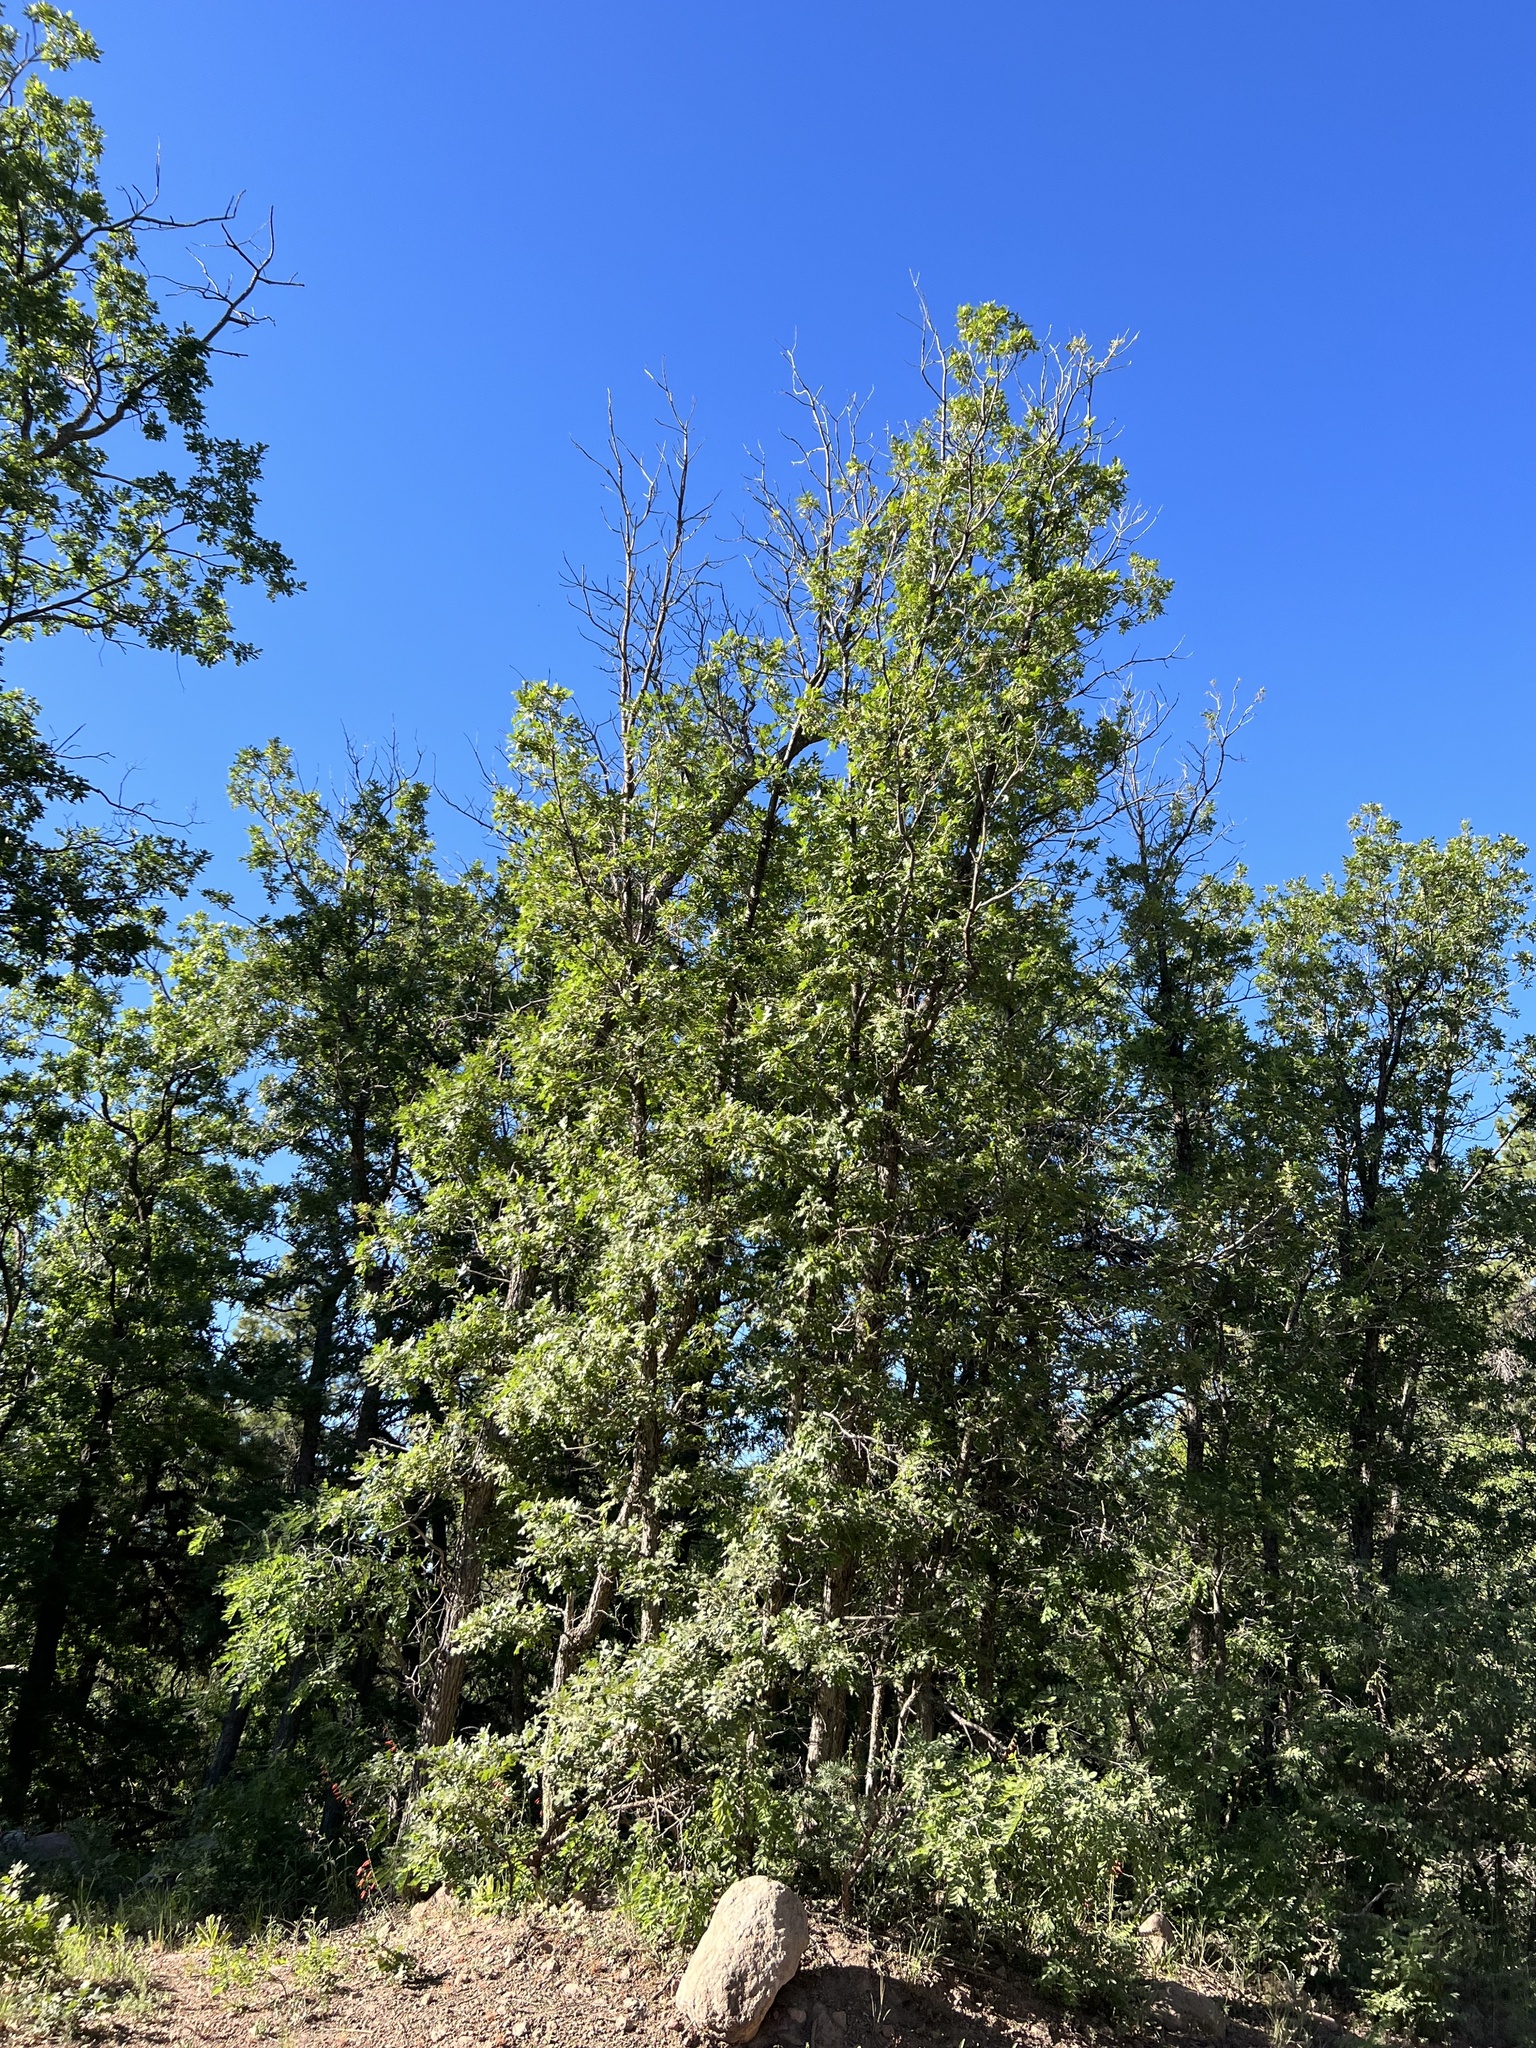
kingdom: Plantae
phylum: Tracheophyta
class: Magnoliopsida
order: Fagales
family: Fagaceae
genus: Quercus
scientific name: Quercus gambelii
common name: Gambel oak
